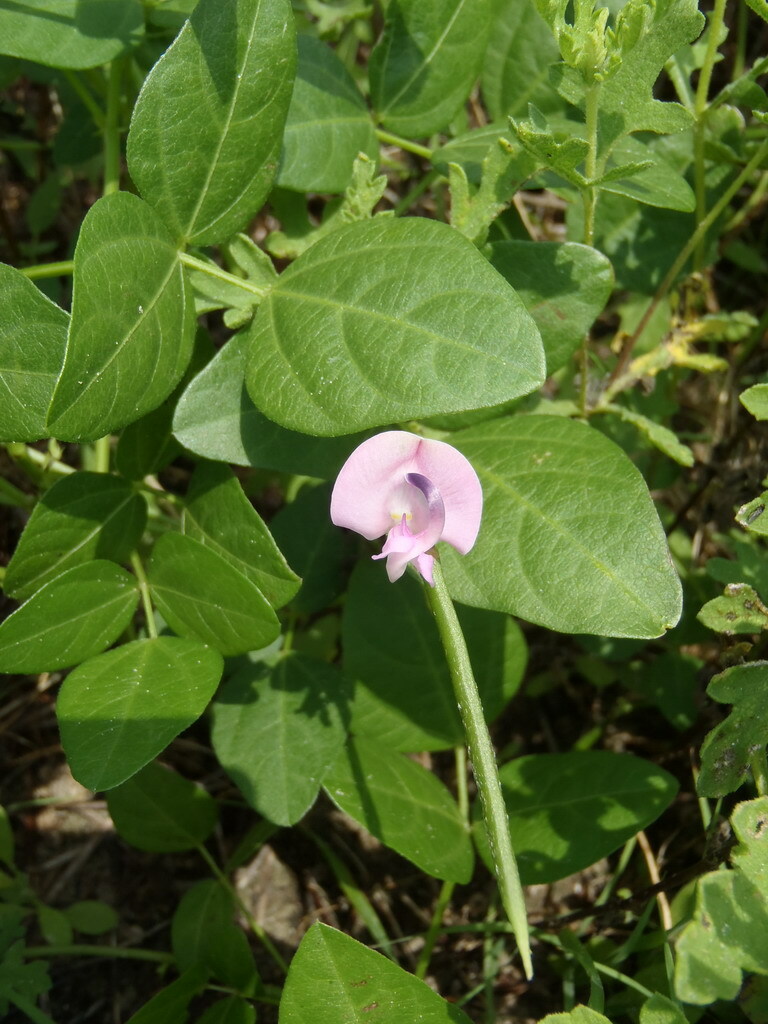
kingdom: Plantae
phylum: Tracheophyta
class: Magnoliopsida
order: Fabales
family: Fabaceae
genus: Strophostyles
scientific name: Strophostyles helvola
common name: Trailing wild bean
